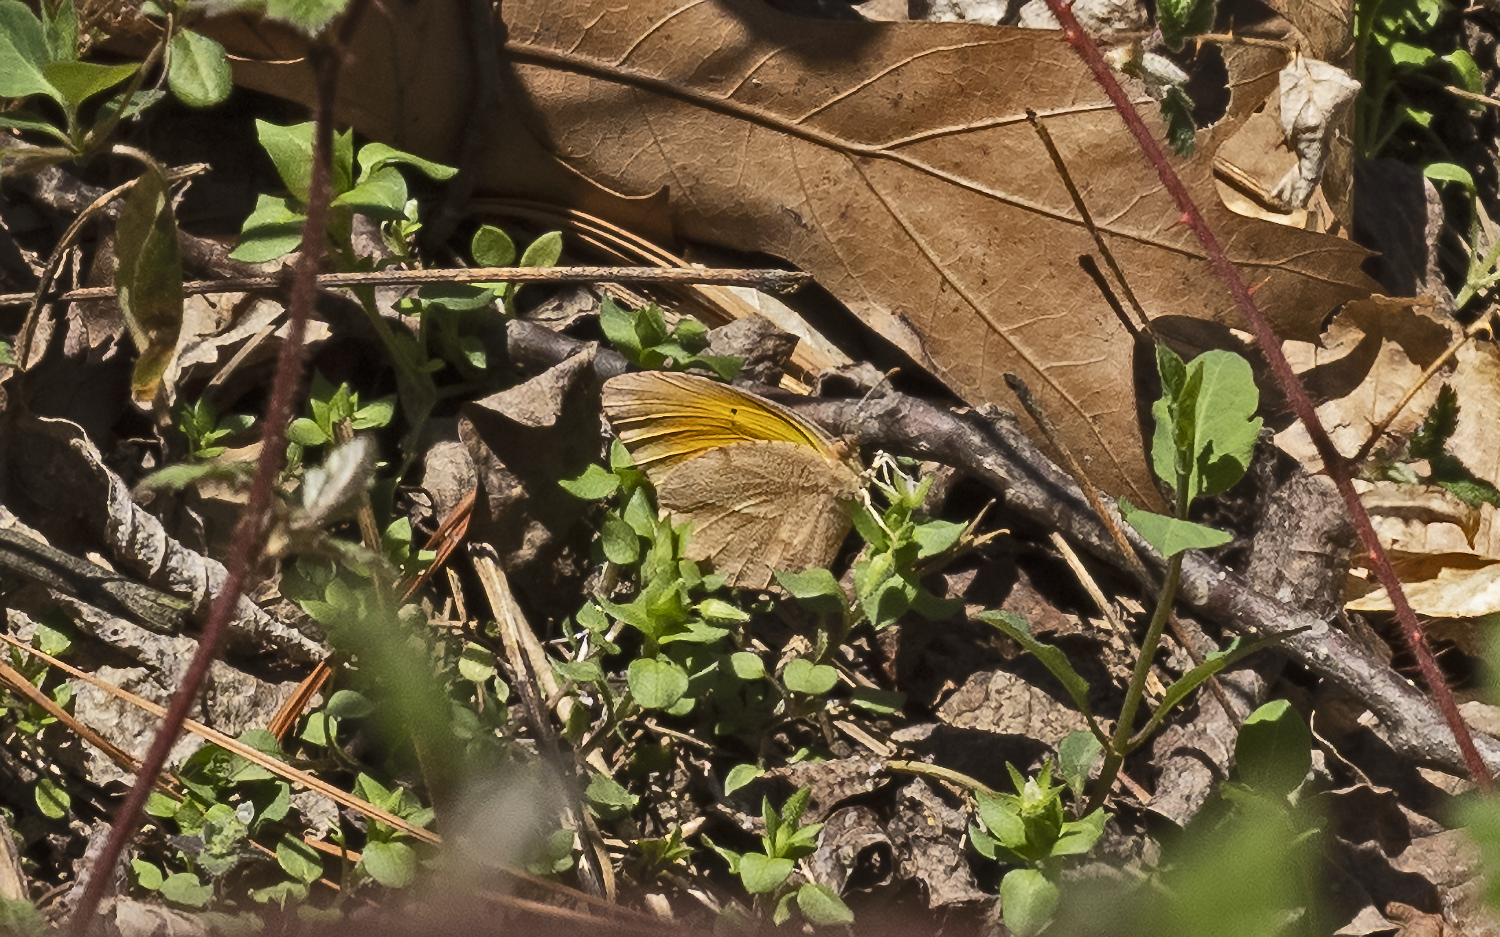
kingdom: Animalia
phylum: Arthropoda
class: Insecta
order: Lepidoptera
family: Pieridae
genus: Abaeis
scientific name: Abaeis nicippe
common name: Sleepy orange
